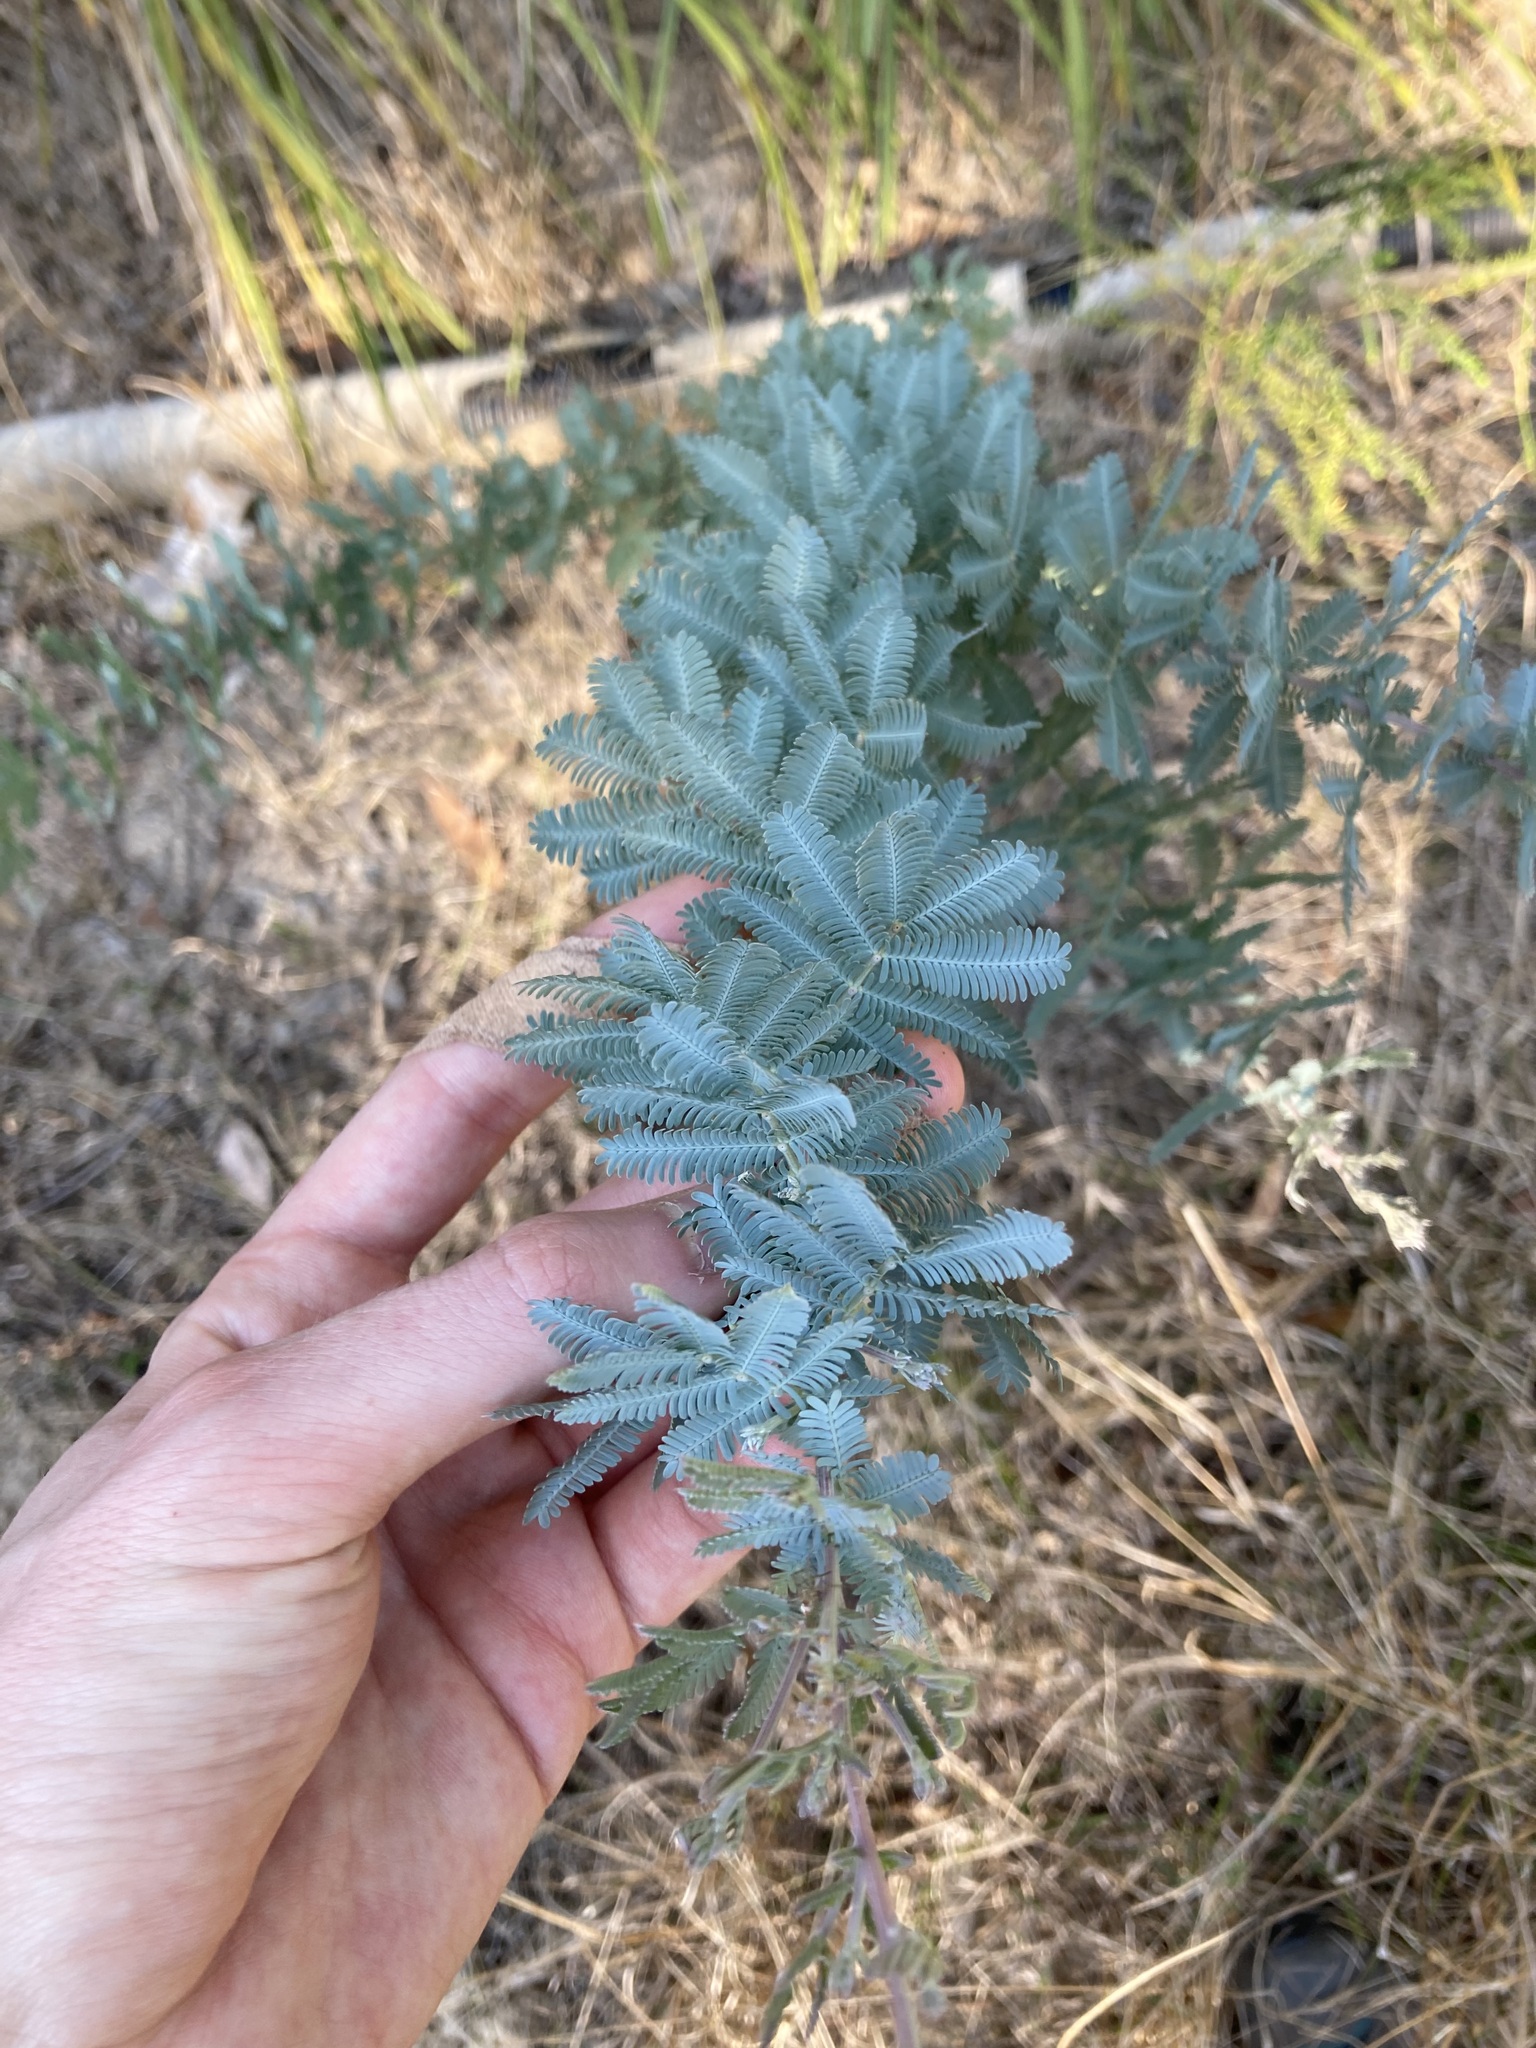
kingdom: Plantae
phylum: Tracheophyta
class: Magnoliopsida
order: Fabales
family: Fabaceae
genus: Acacia
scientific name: Acacia baileyana
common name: Cootamundra wattle
